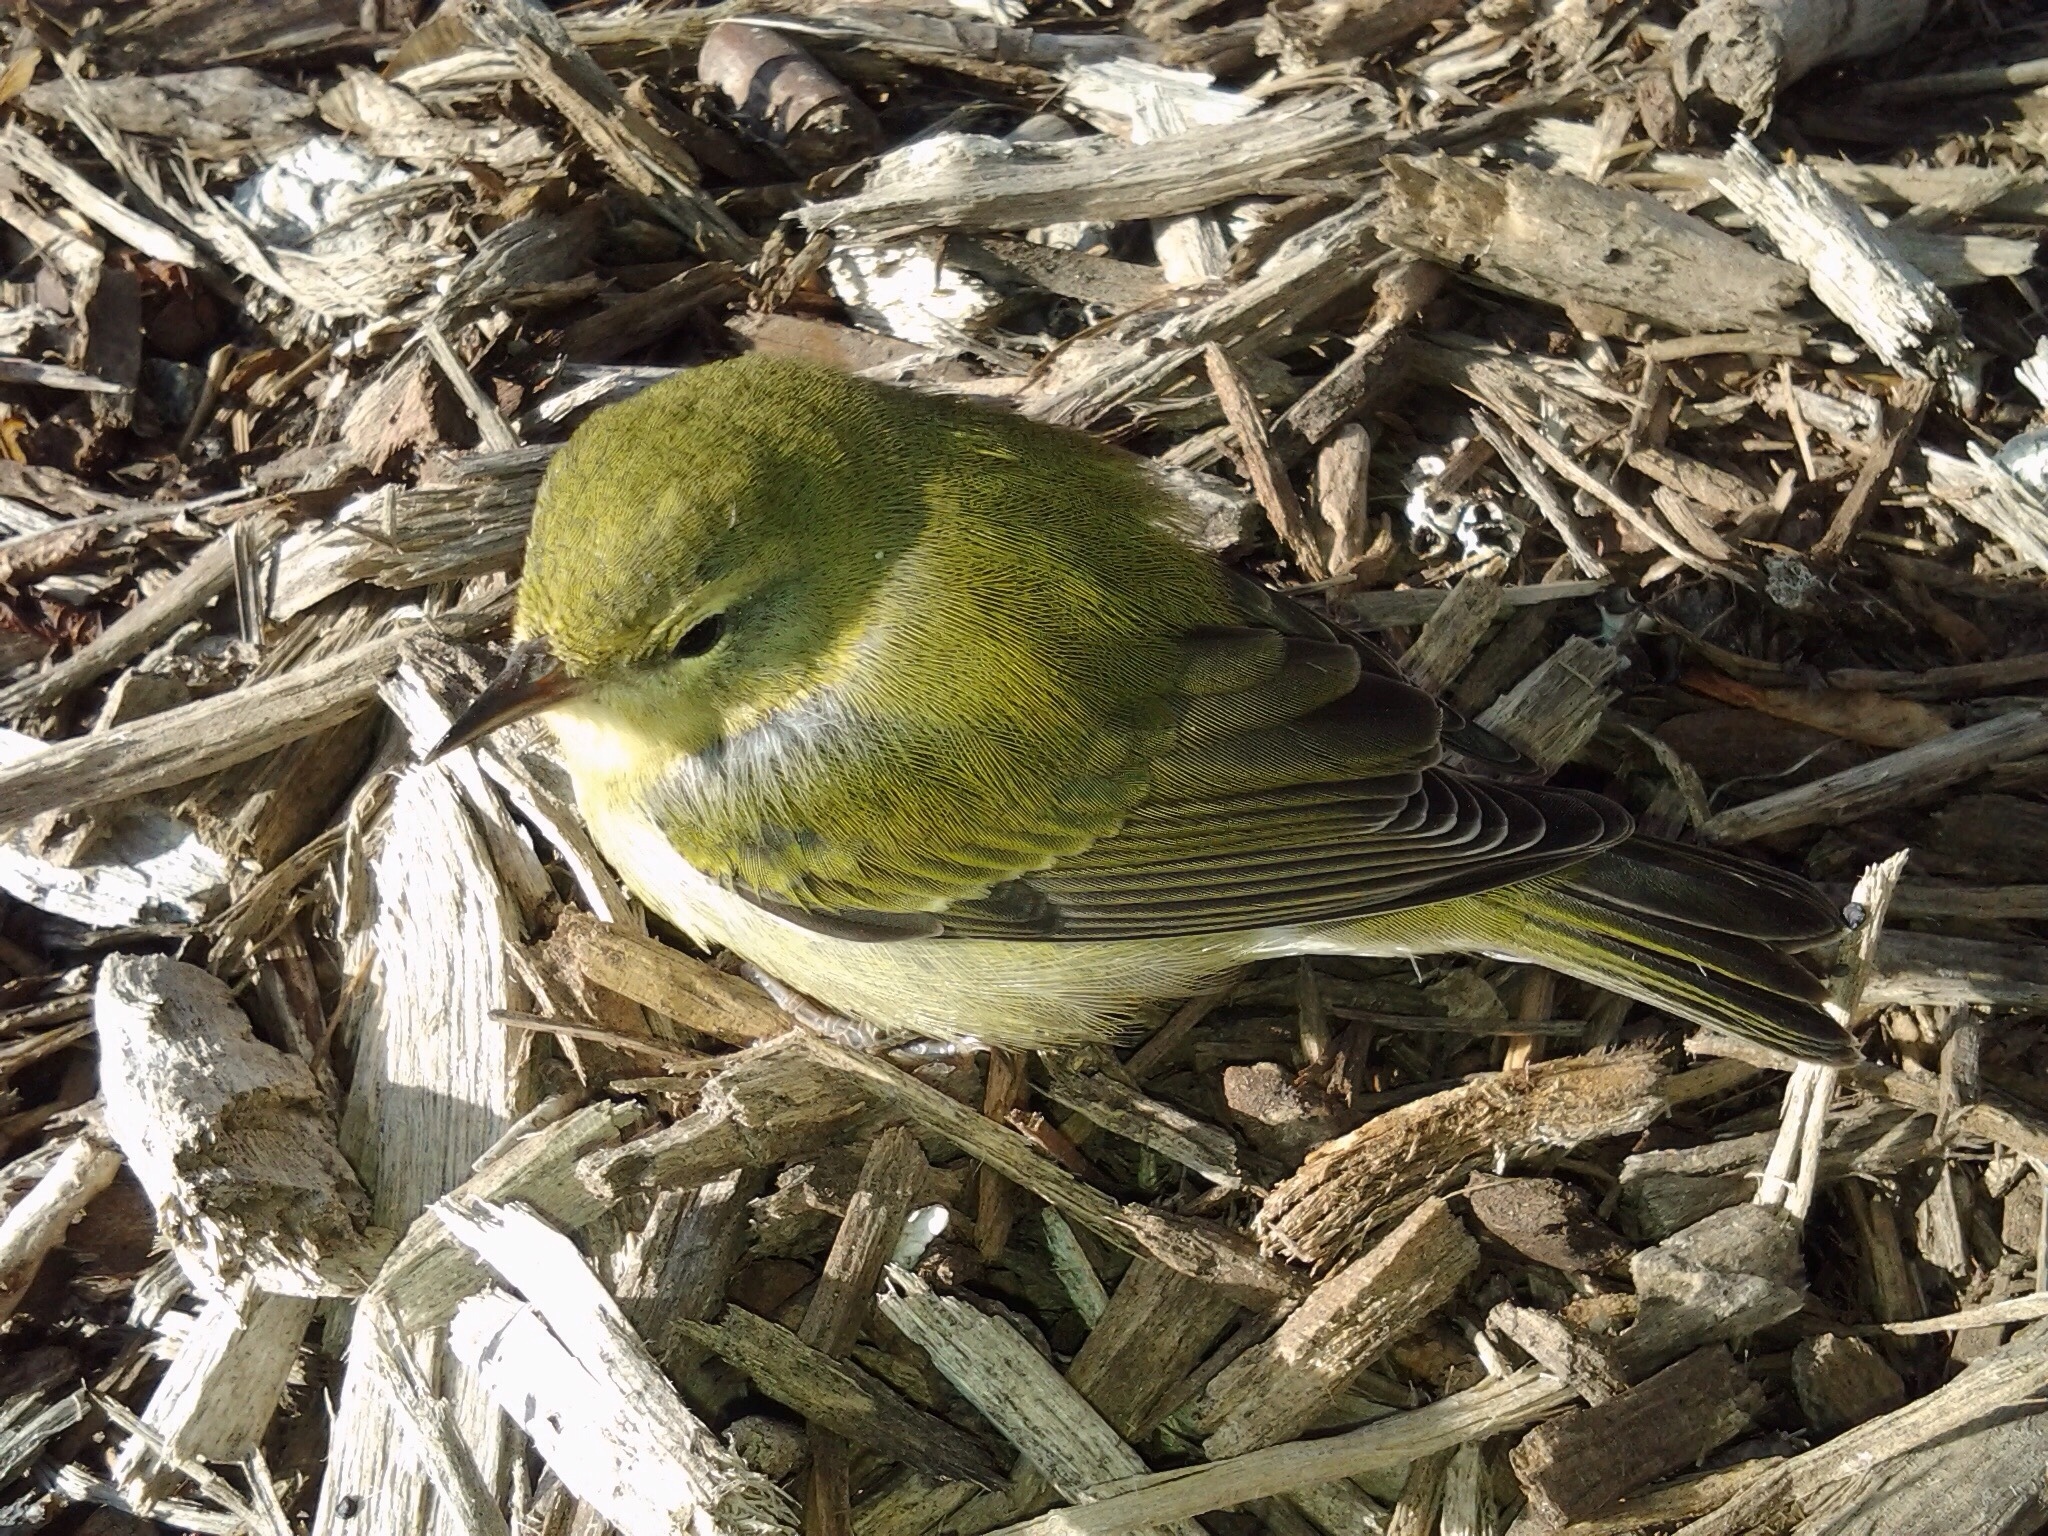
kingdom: Animalia
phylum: Chordata
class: Aves
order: Passeriformes
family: Parulidae
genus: Leiothlypis
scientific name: Leiothlypis peregrina
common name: Tennessee warbler
